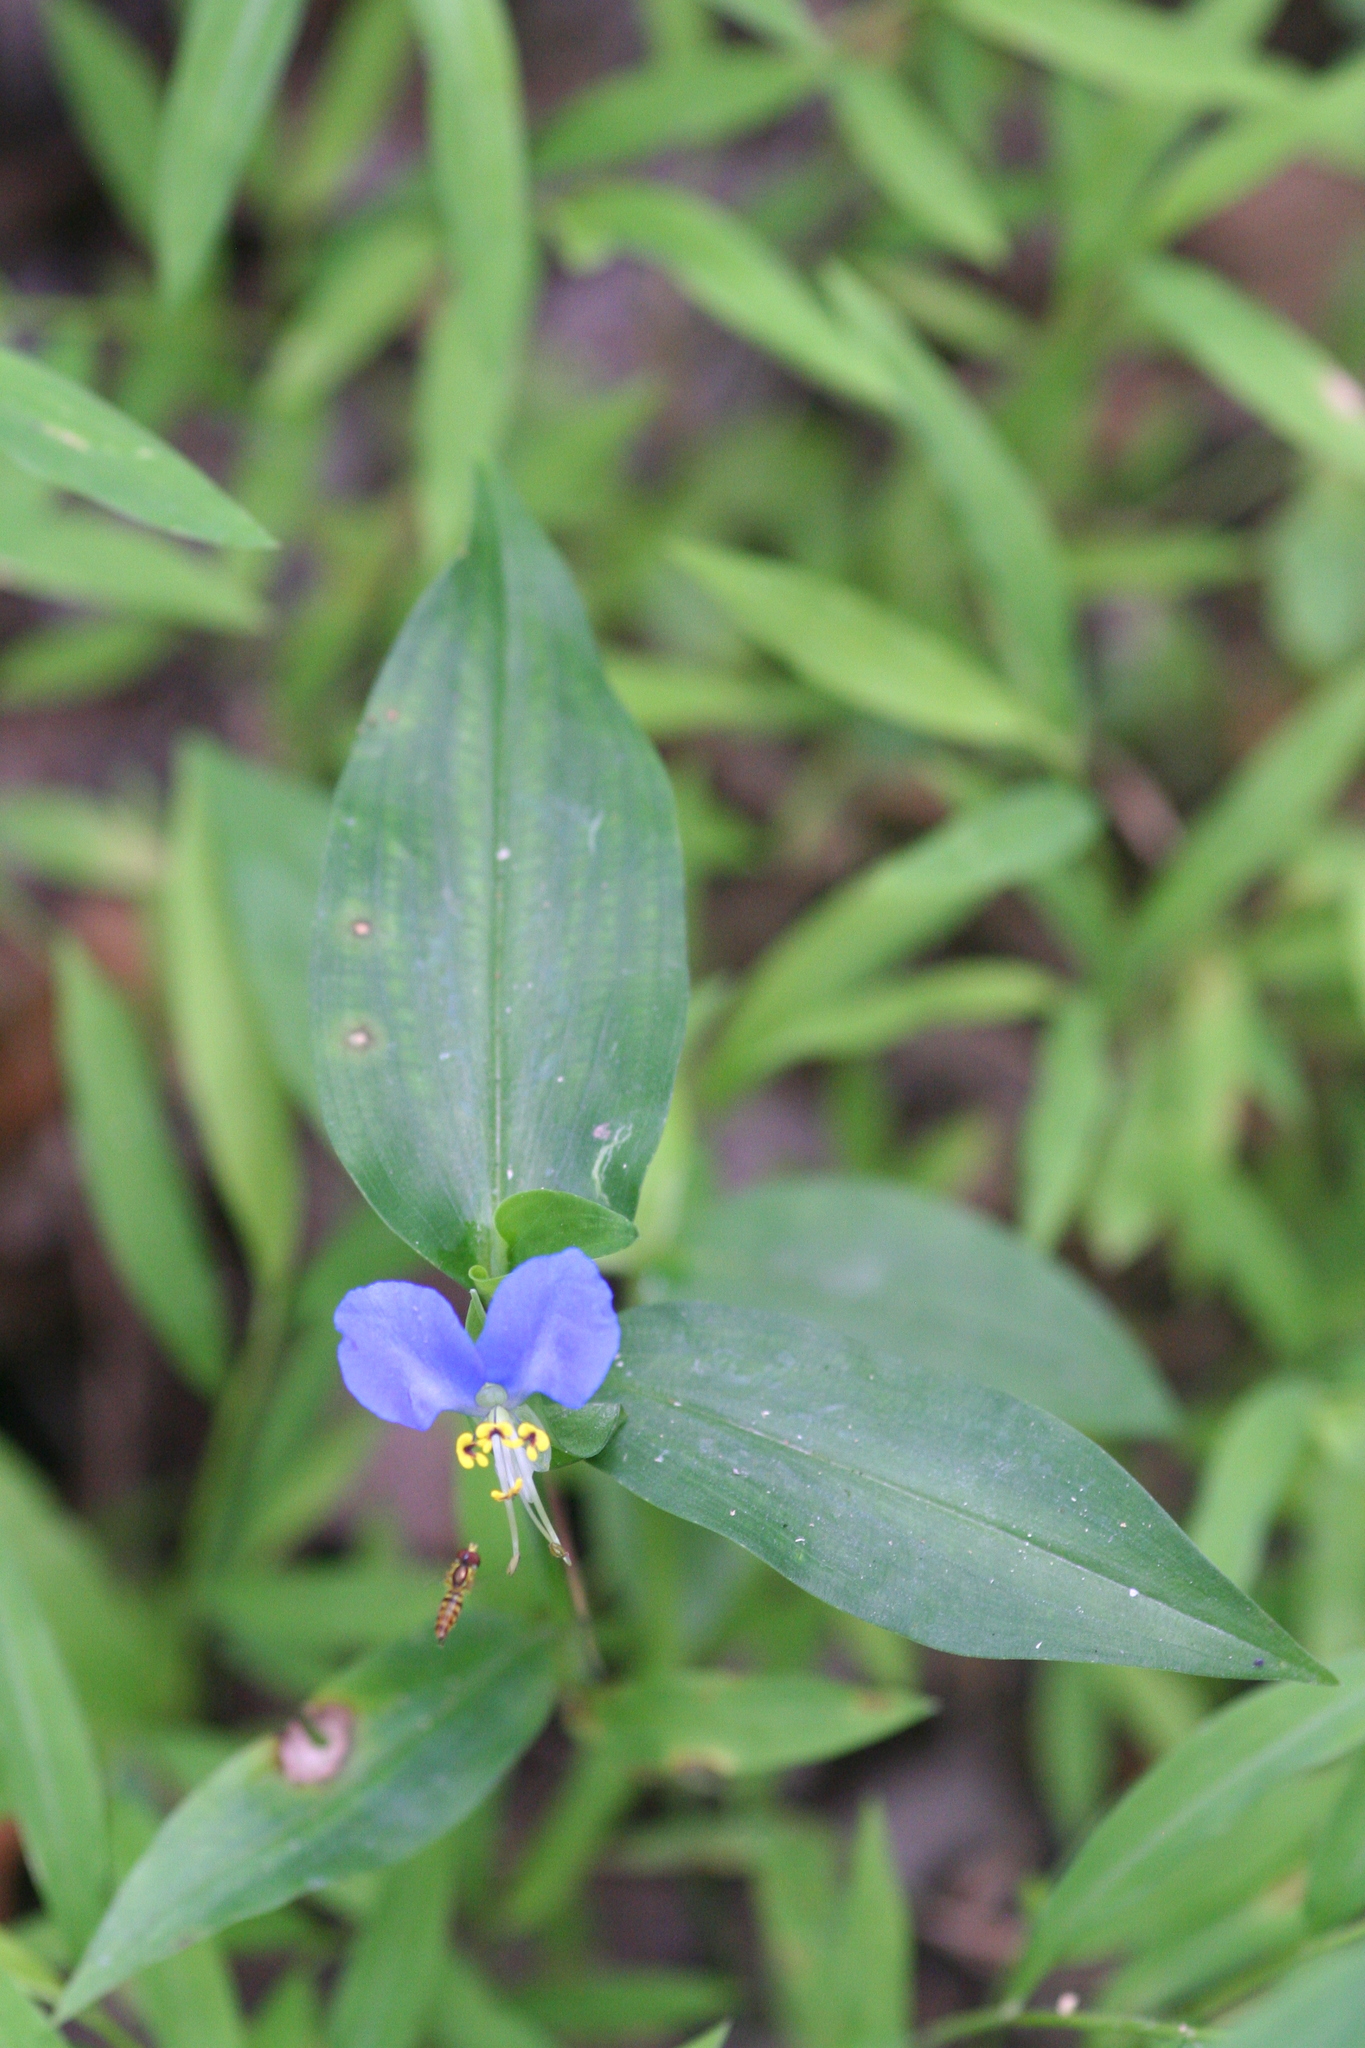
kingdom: Plantae
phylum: Tracheophyta
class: Liliopsida
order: Commelinales
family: Commelinaceae
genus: Commelina
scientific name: Commelina communis
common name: Asiatic dayflower
